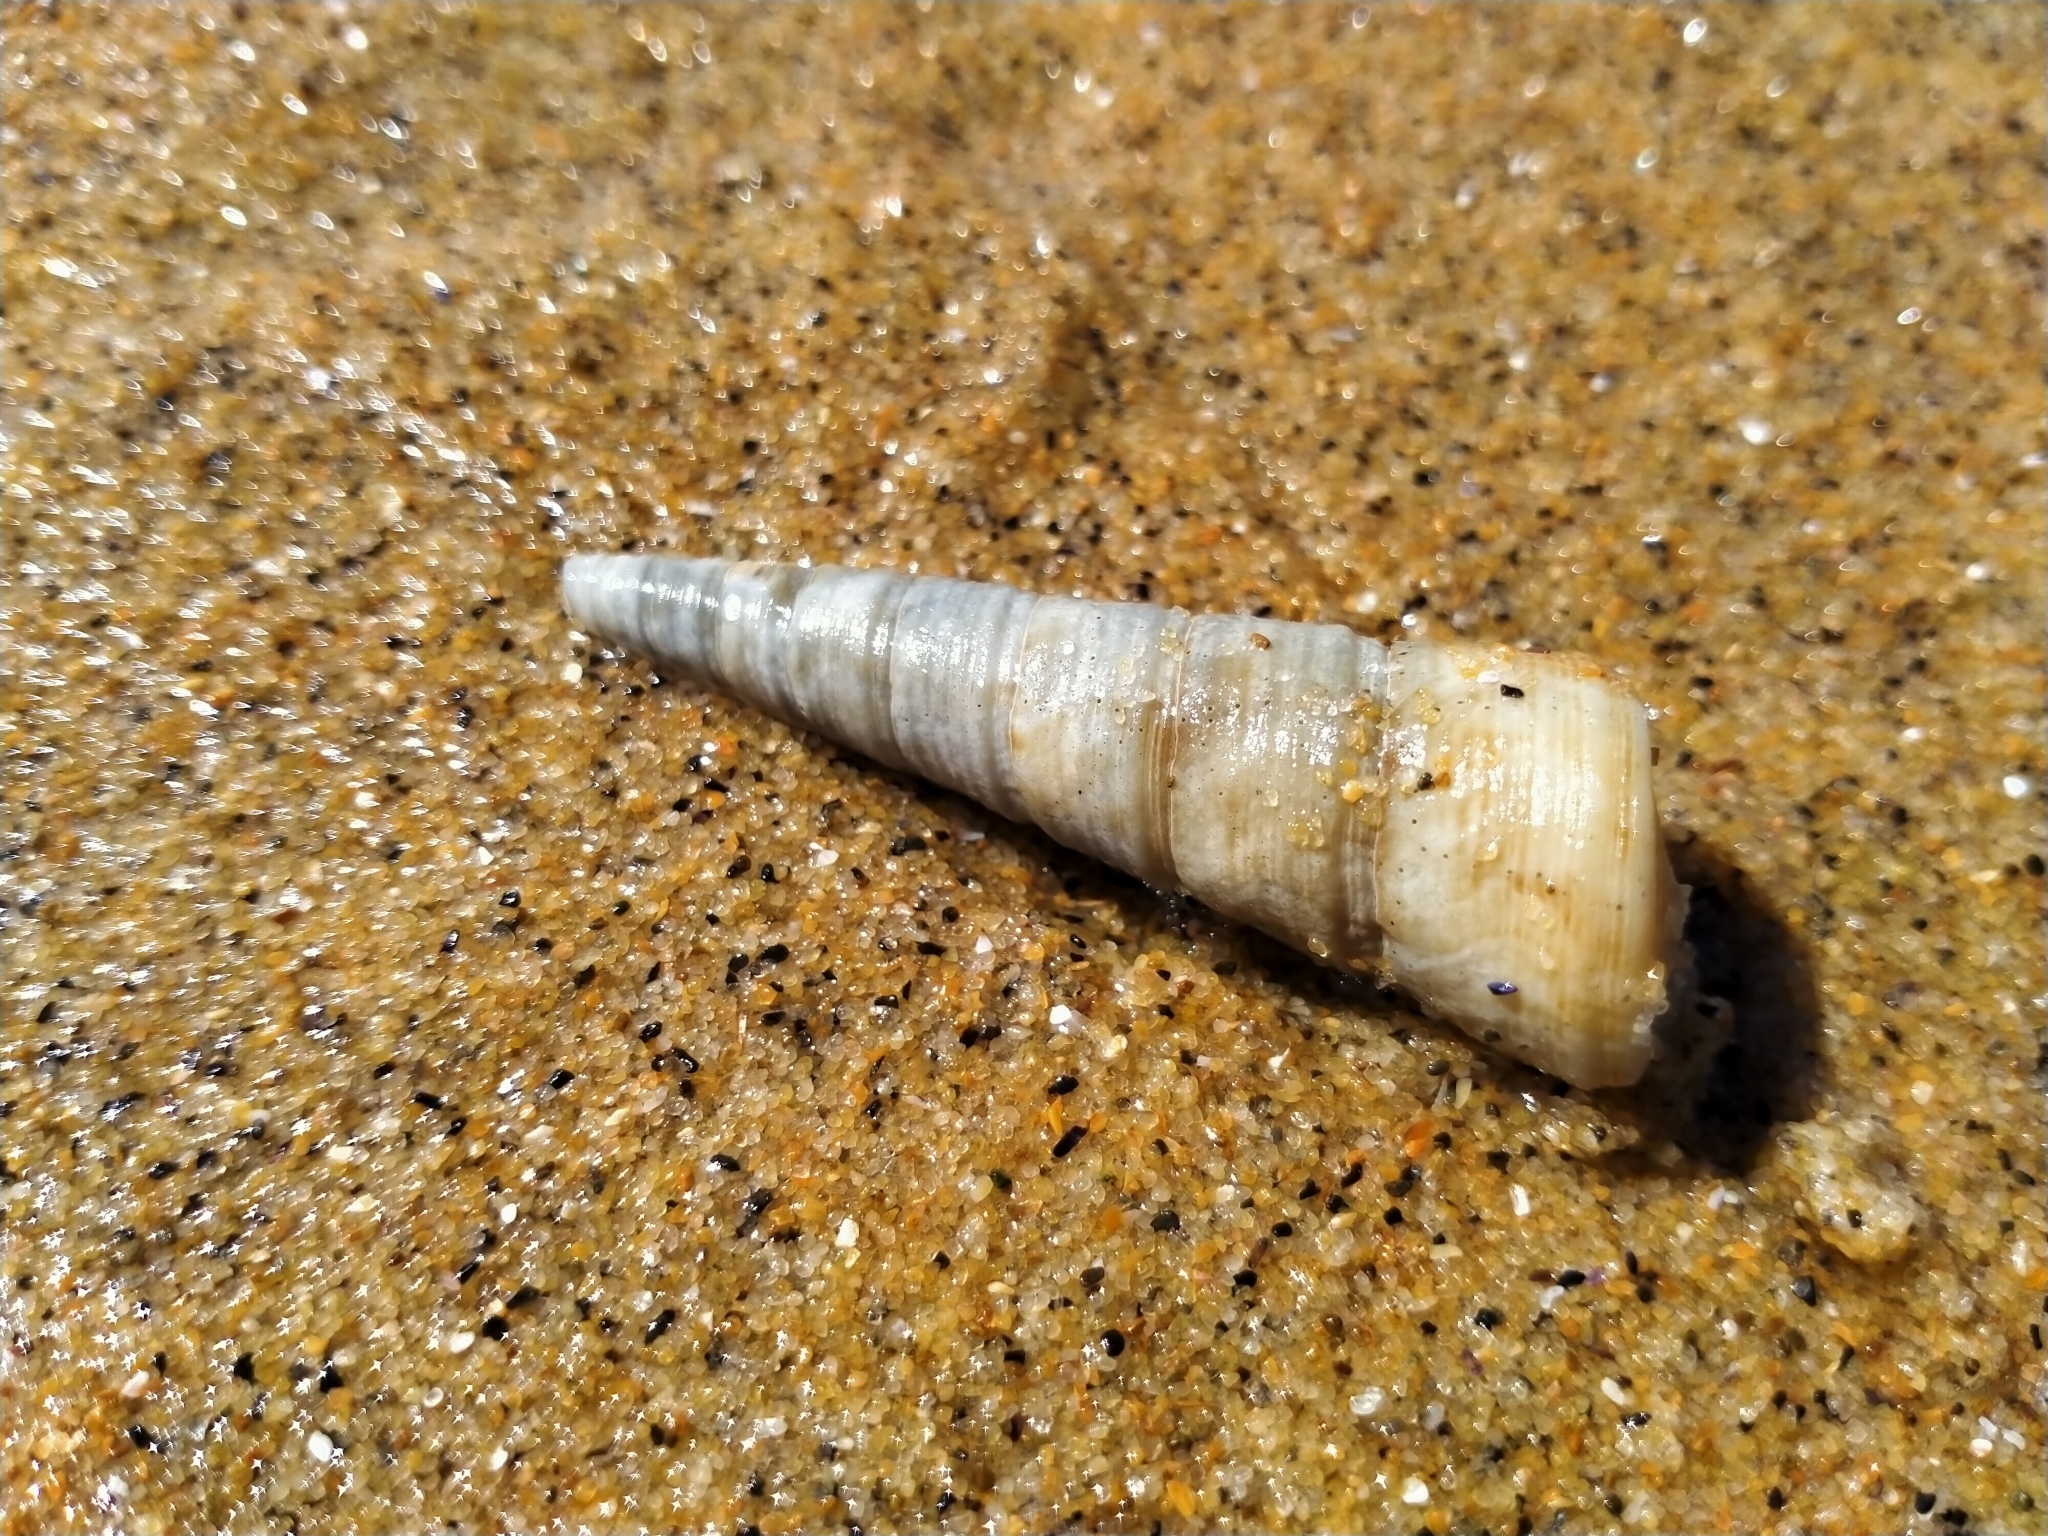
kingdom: Animalia
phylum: Mollusca
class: Gastropoda
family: Turritellidae
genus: Maoricolpus
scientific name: Maoricolpus roseus
